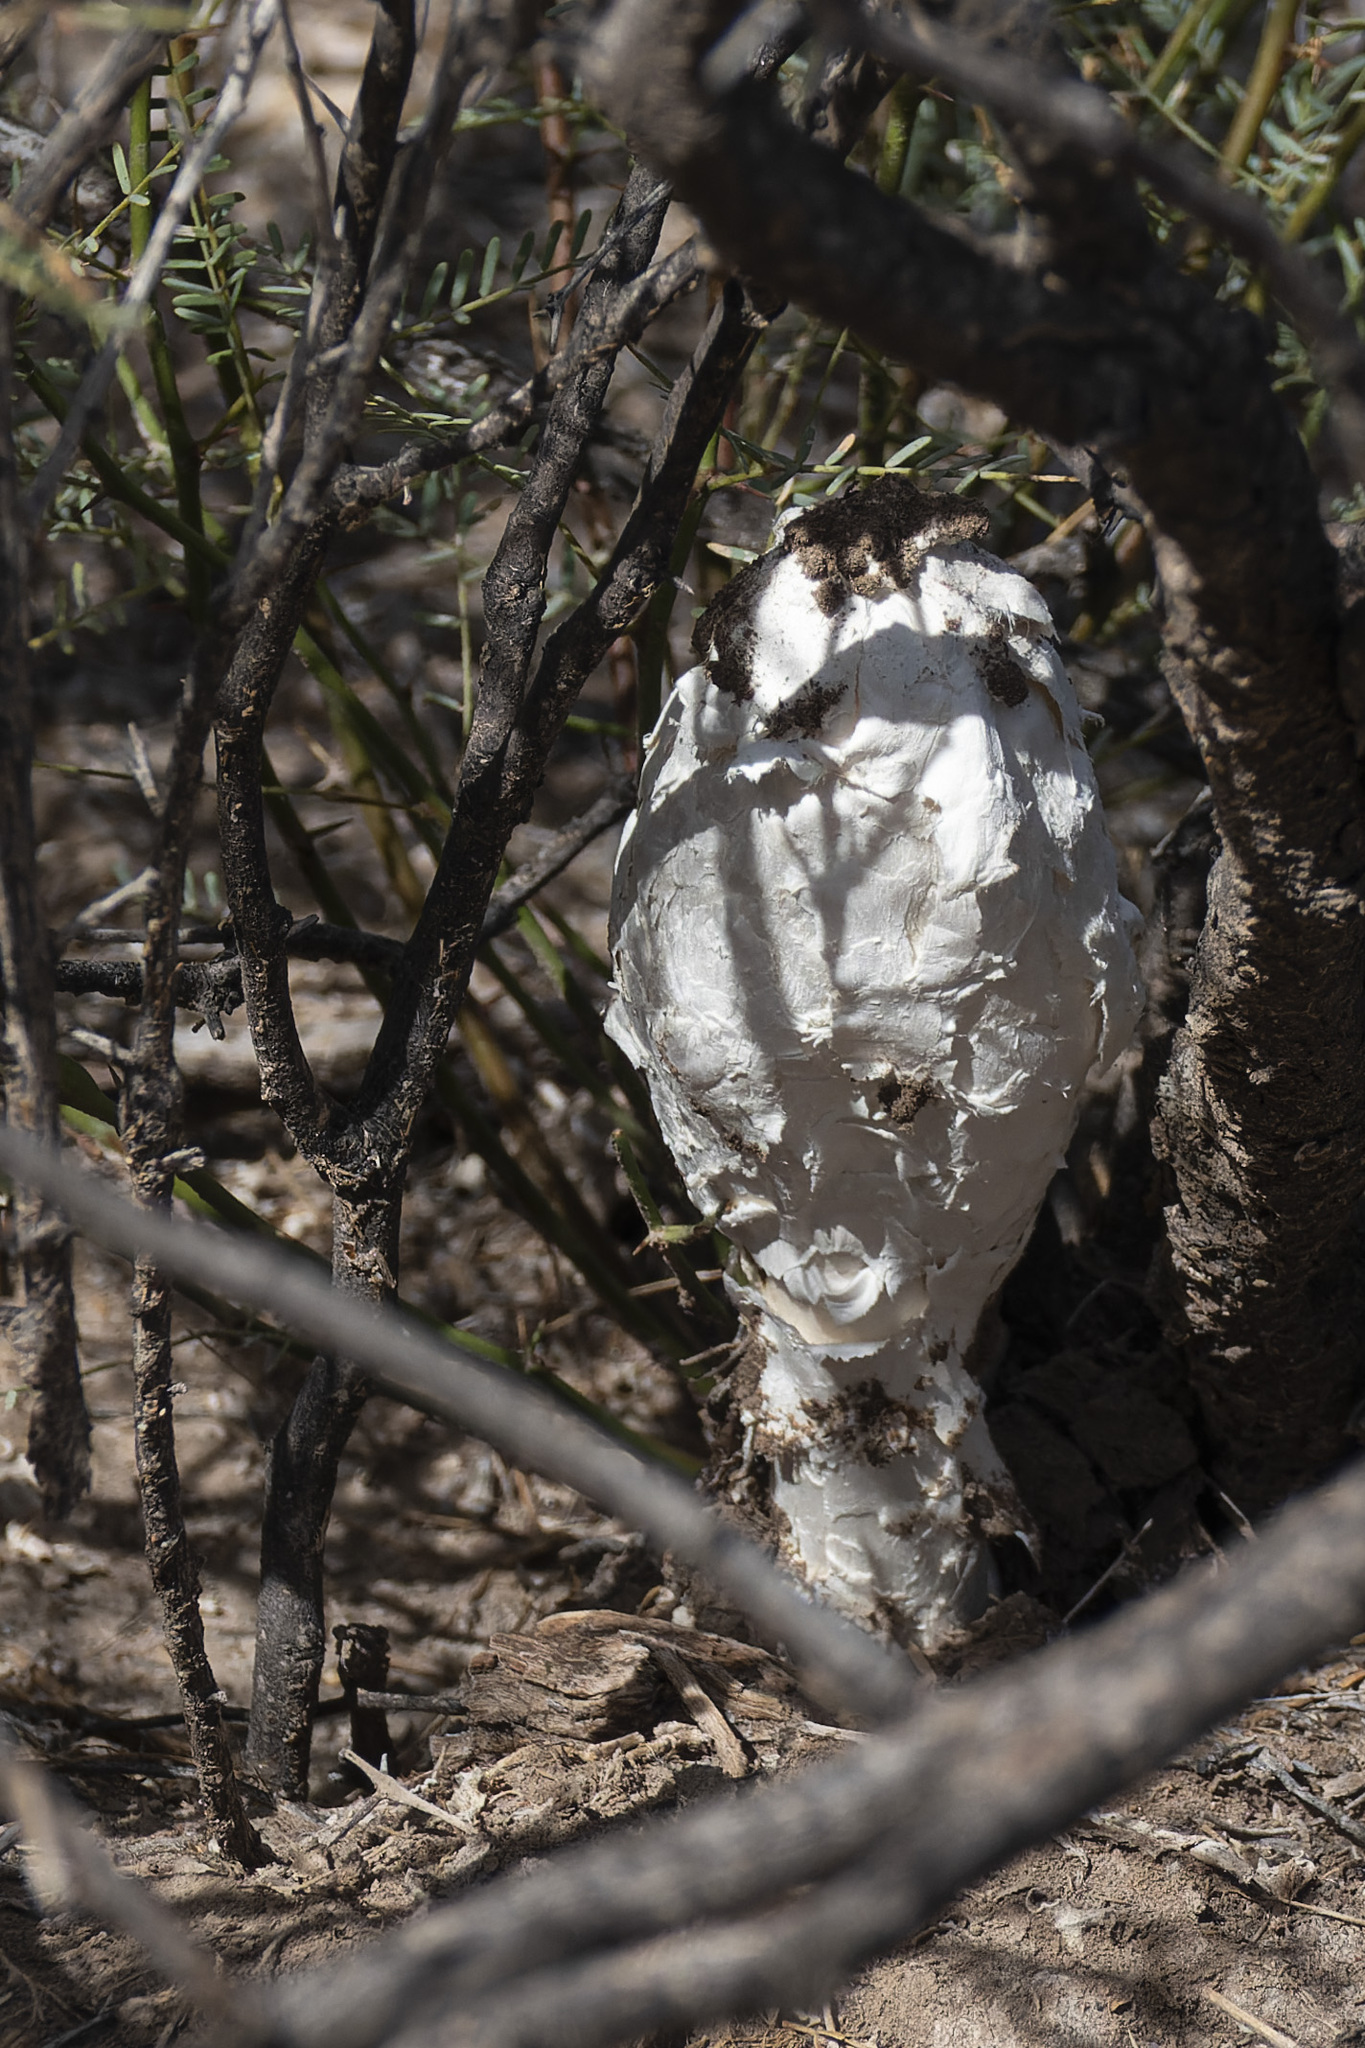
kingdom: Fungi
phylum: Basidiomycota
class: Agaricomycetes
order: Agaricales
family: Agaricaceae
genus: Podaxis
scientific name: Podaxis pistillaris
